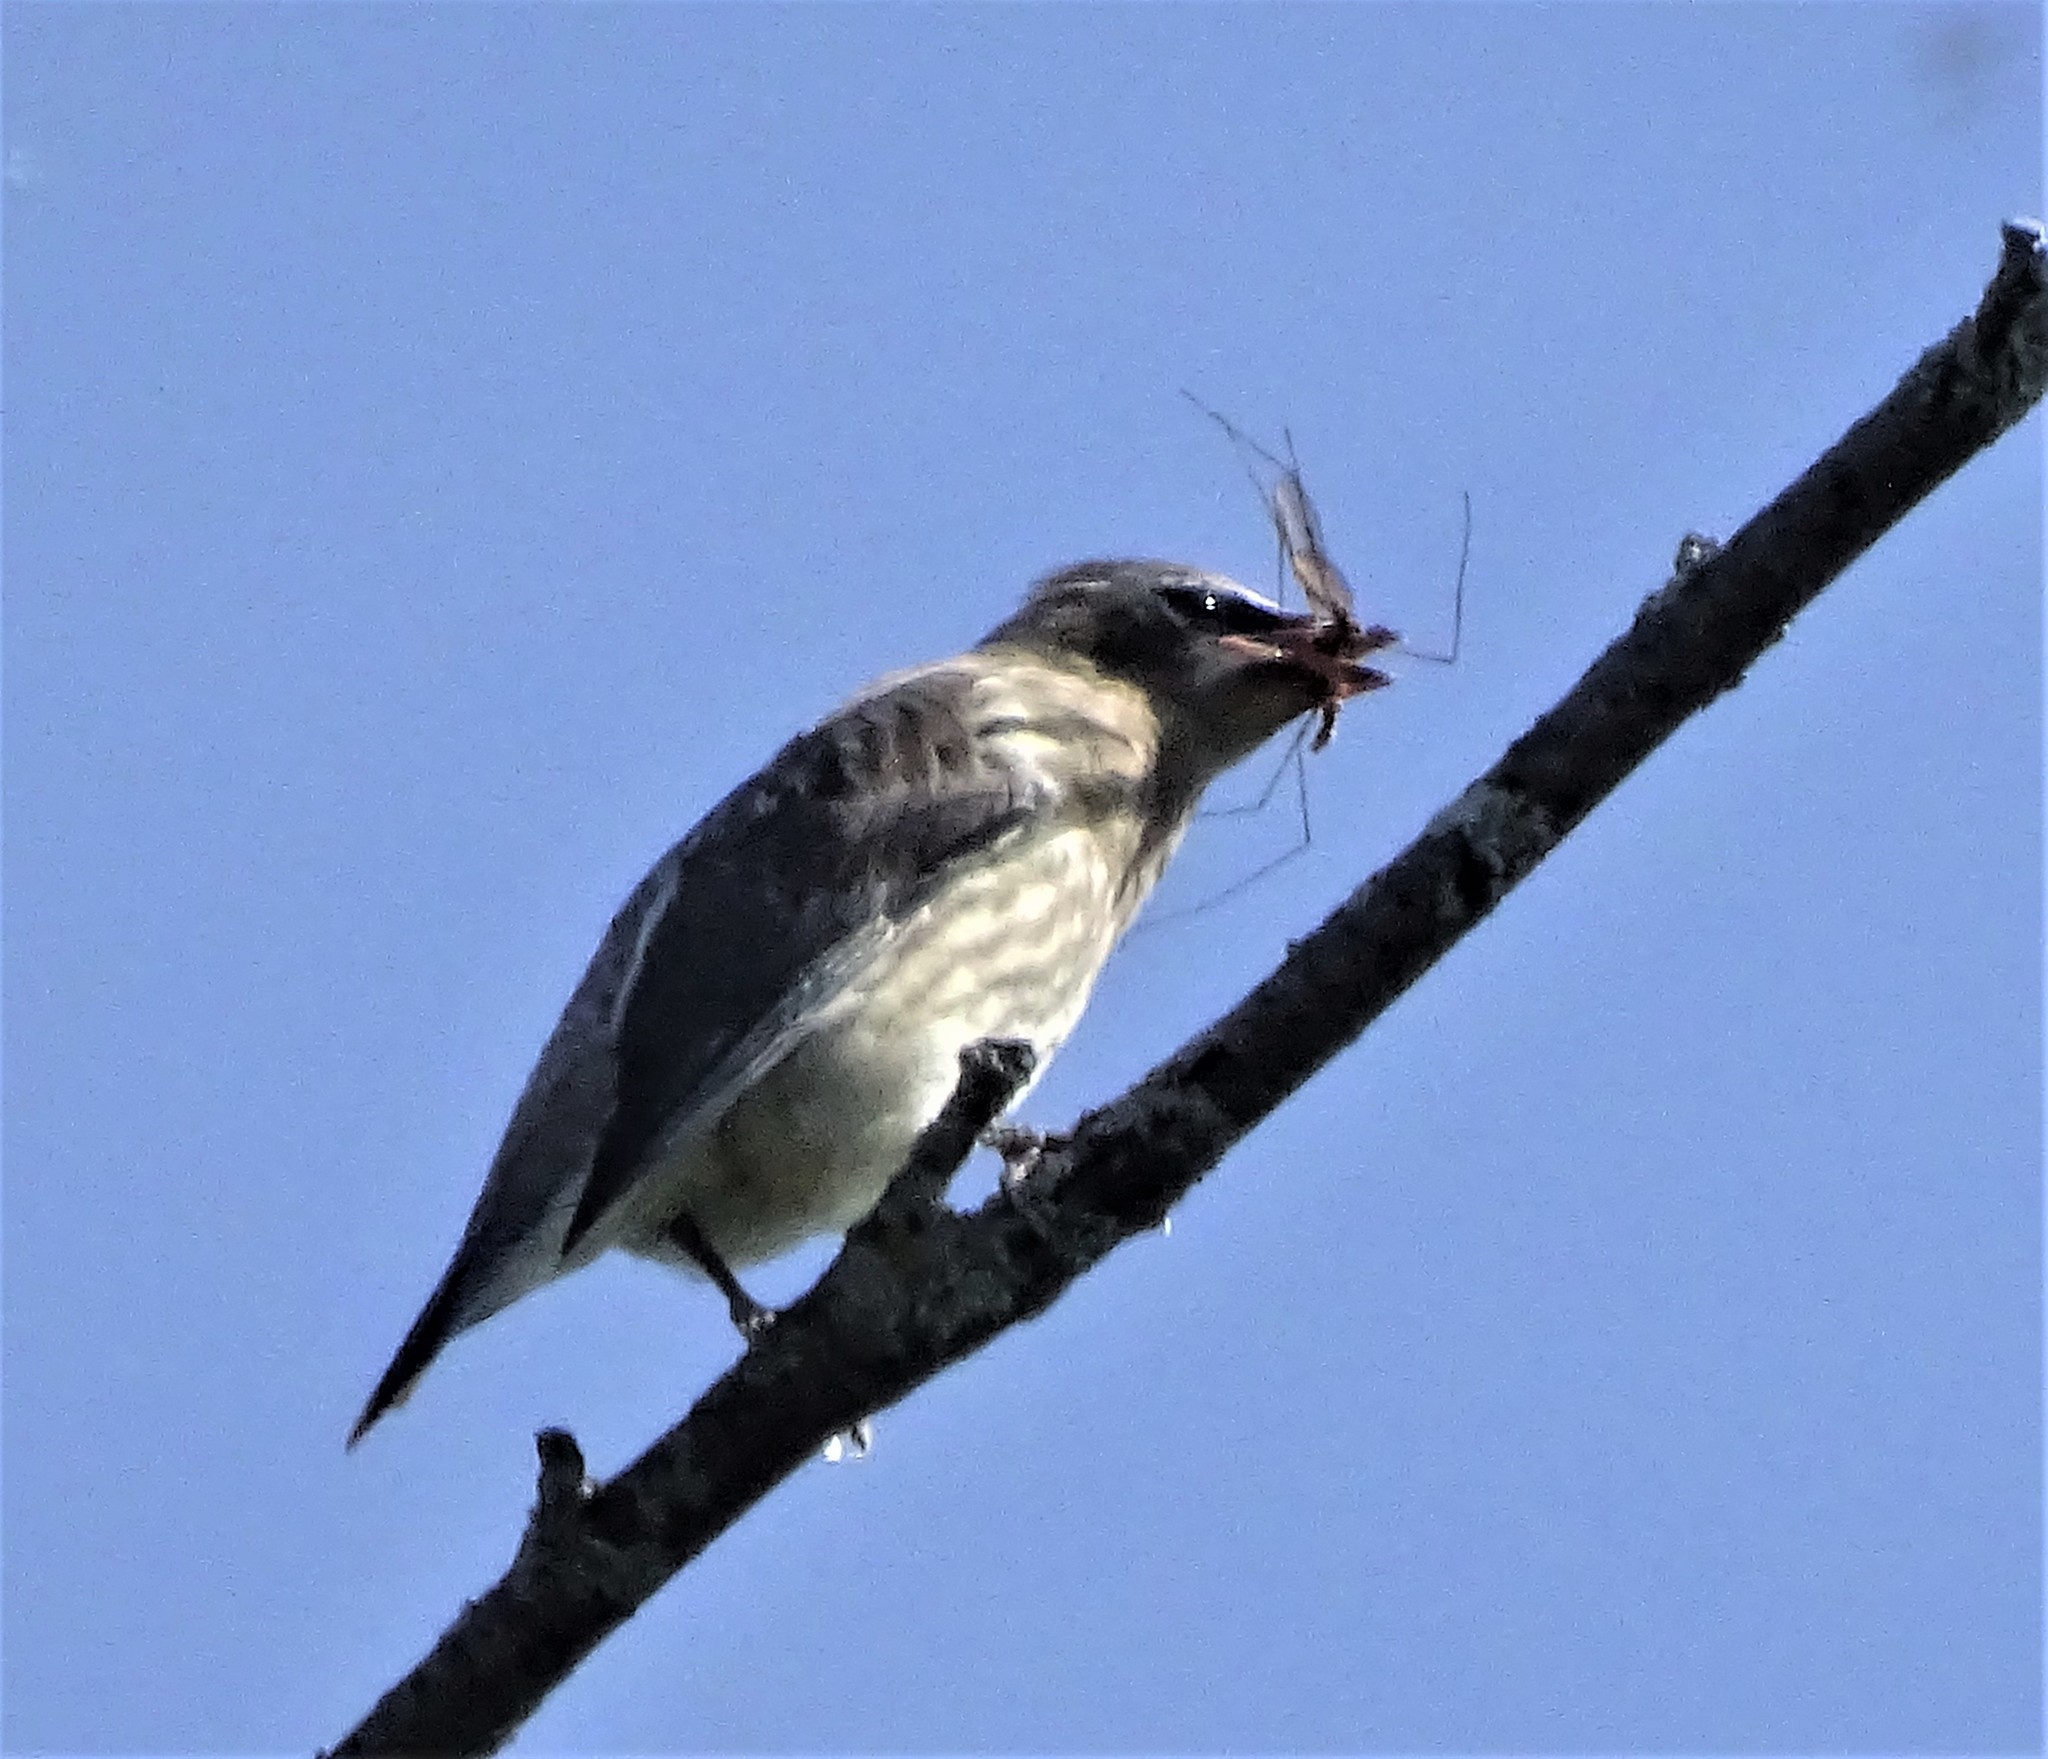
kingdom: Animalia
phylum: Chordata
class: Aves
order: Passeriformes
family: Bombycillidae
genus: Bombycilla
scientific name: Bombycilla cedrorum
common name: Cedar waxwing
